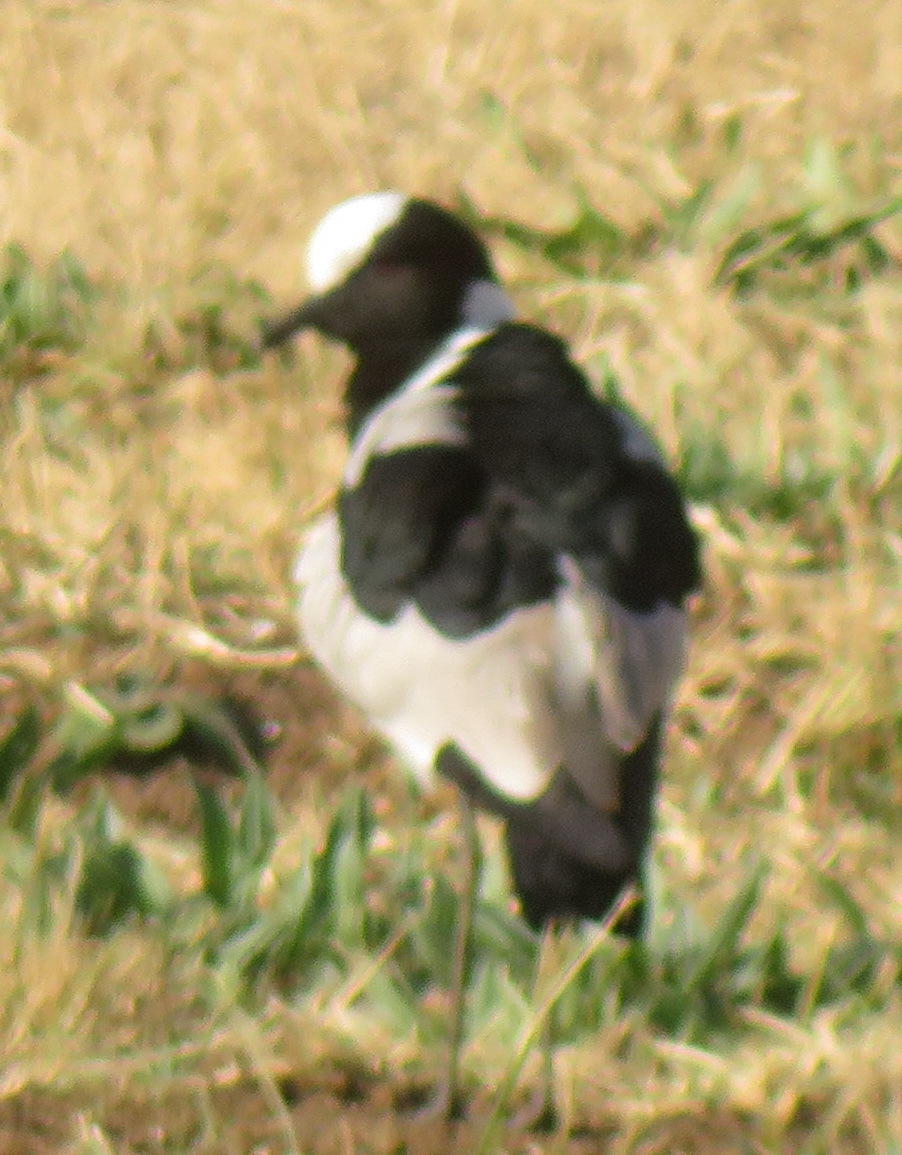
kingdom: Animalia
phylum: Chordata
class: Aves
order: Charadriiformes
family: Charadriidae
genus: Vanellus
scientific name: Vanellus armatus
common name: Blacksmith lapwing
